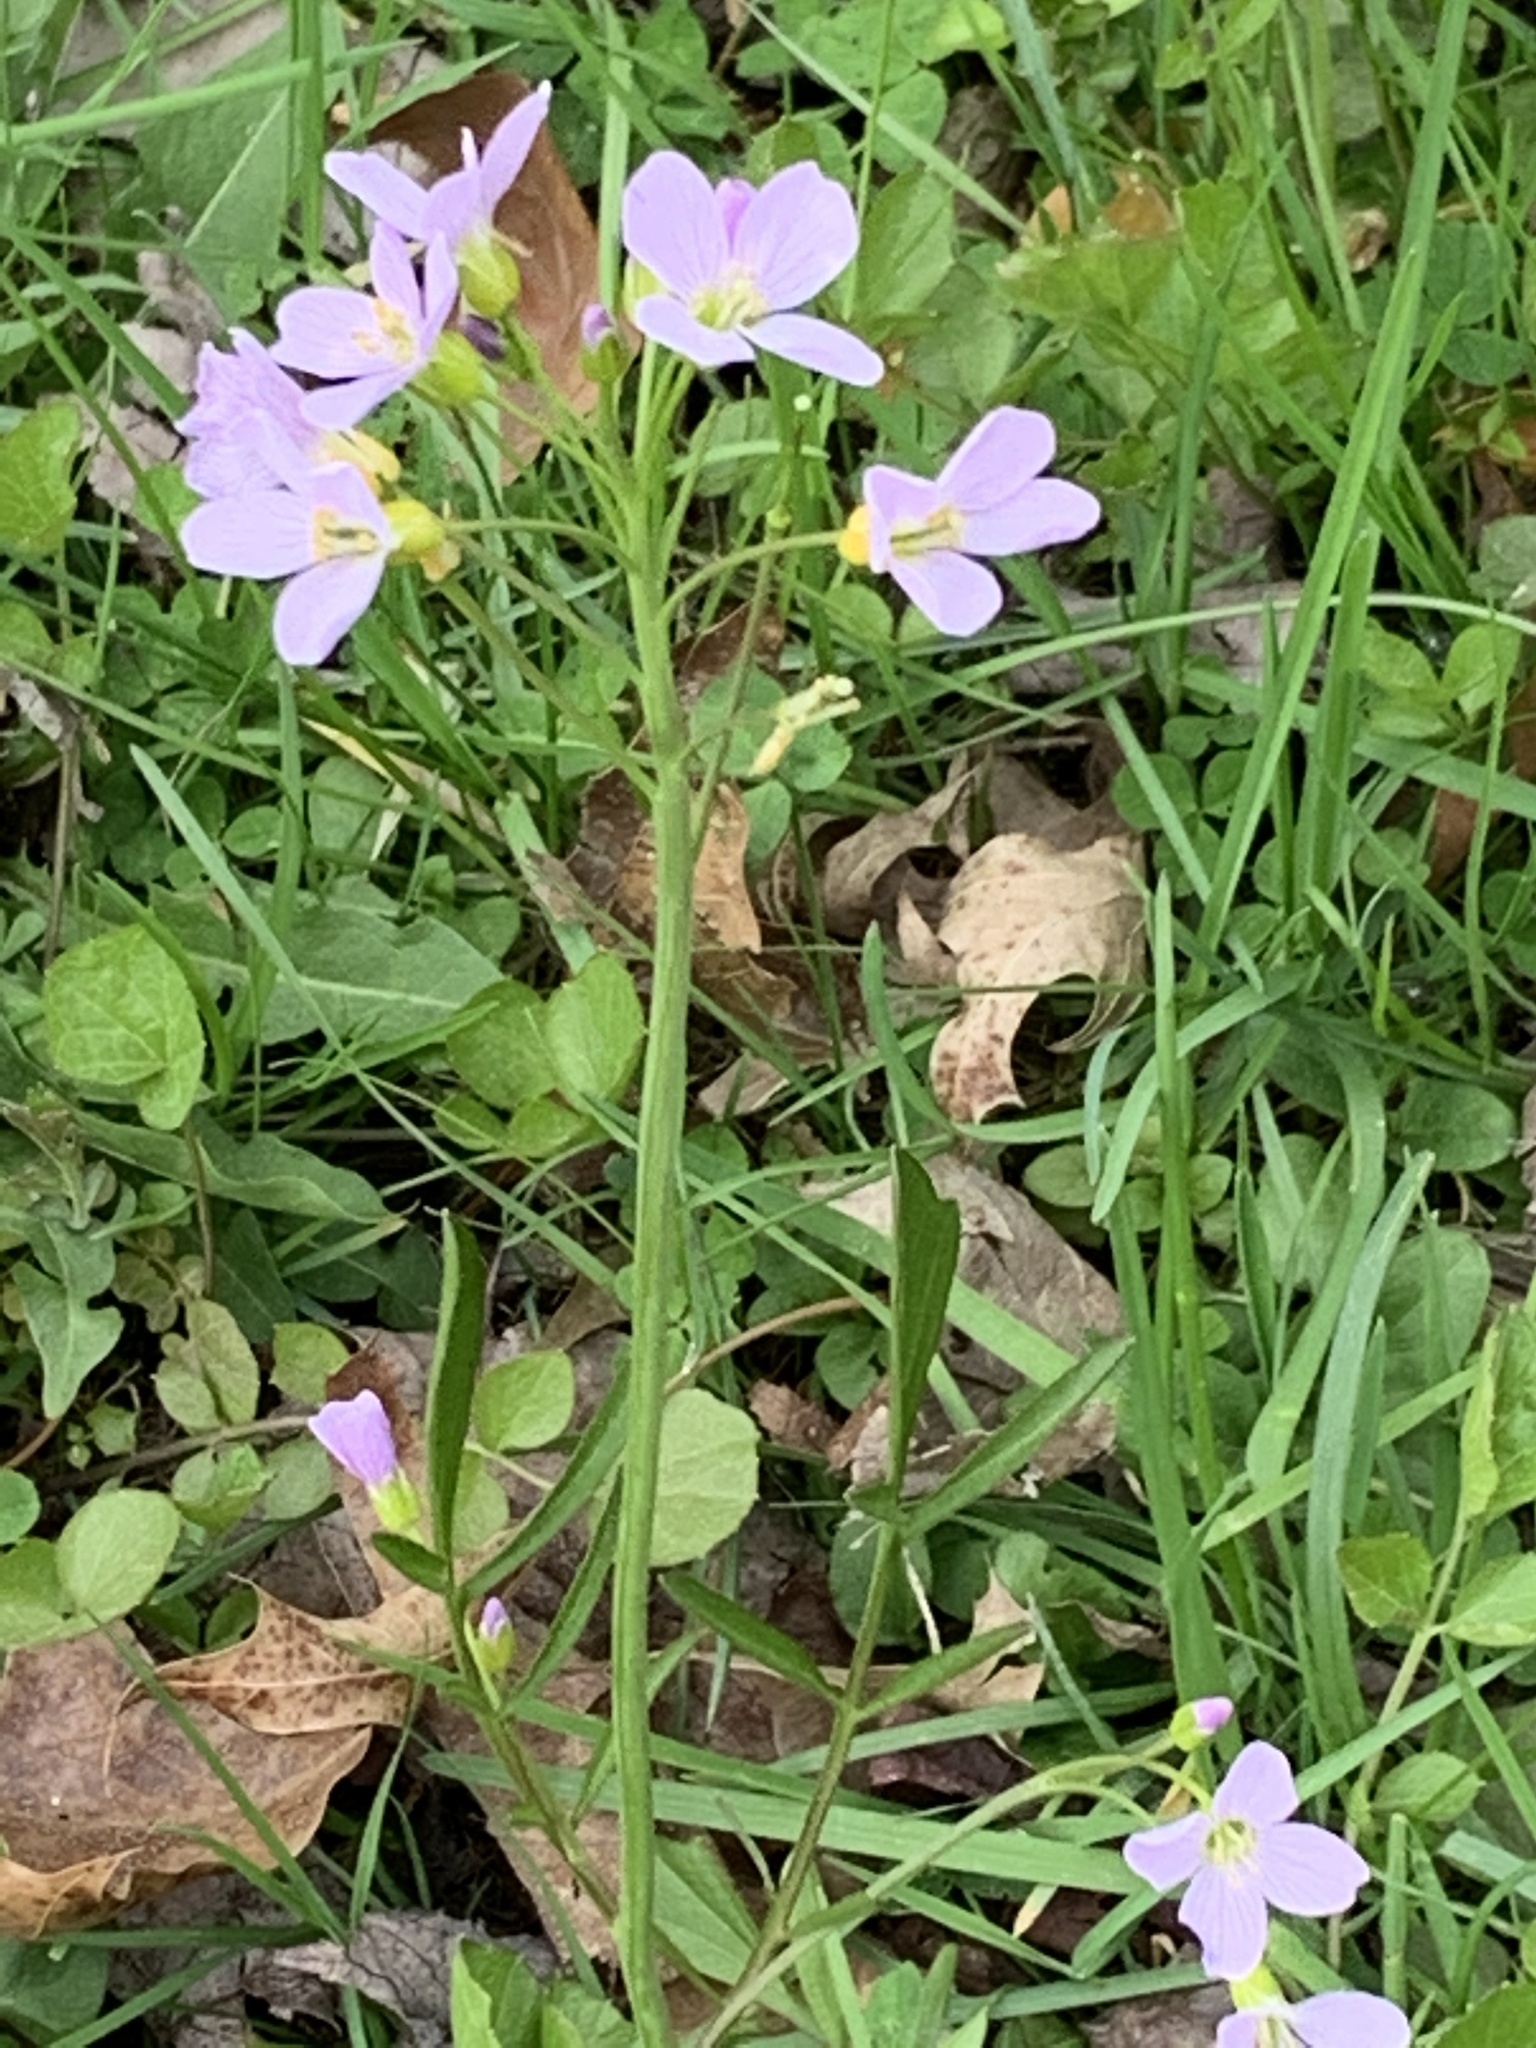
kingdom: Plantae
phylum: Tracheophyta
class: Magnoliopsida
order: Brassicales
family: Brassicaceae
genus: Cardamine
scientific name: Cardamine pratensis
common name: Cuckoo flower
